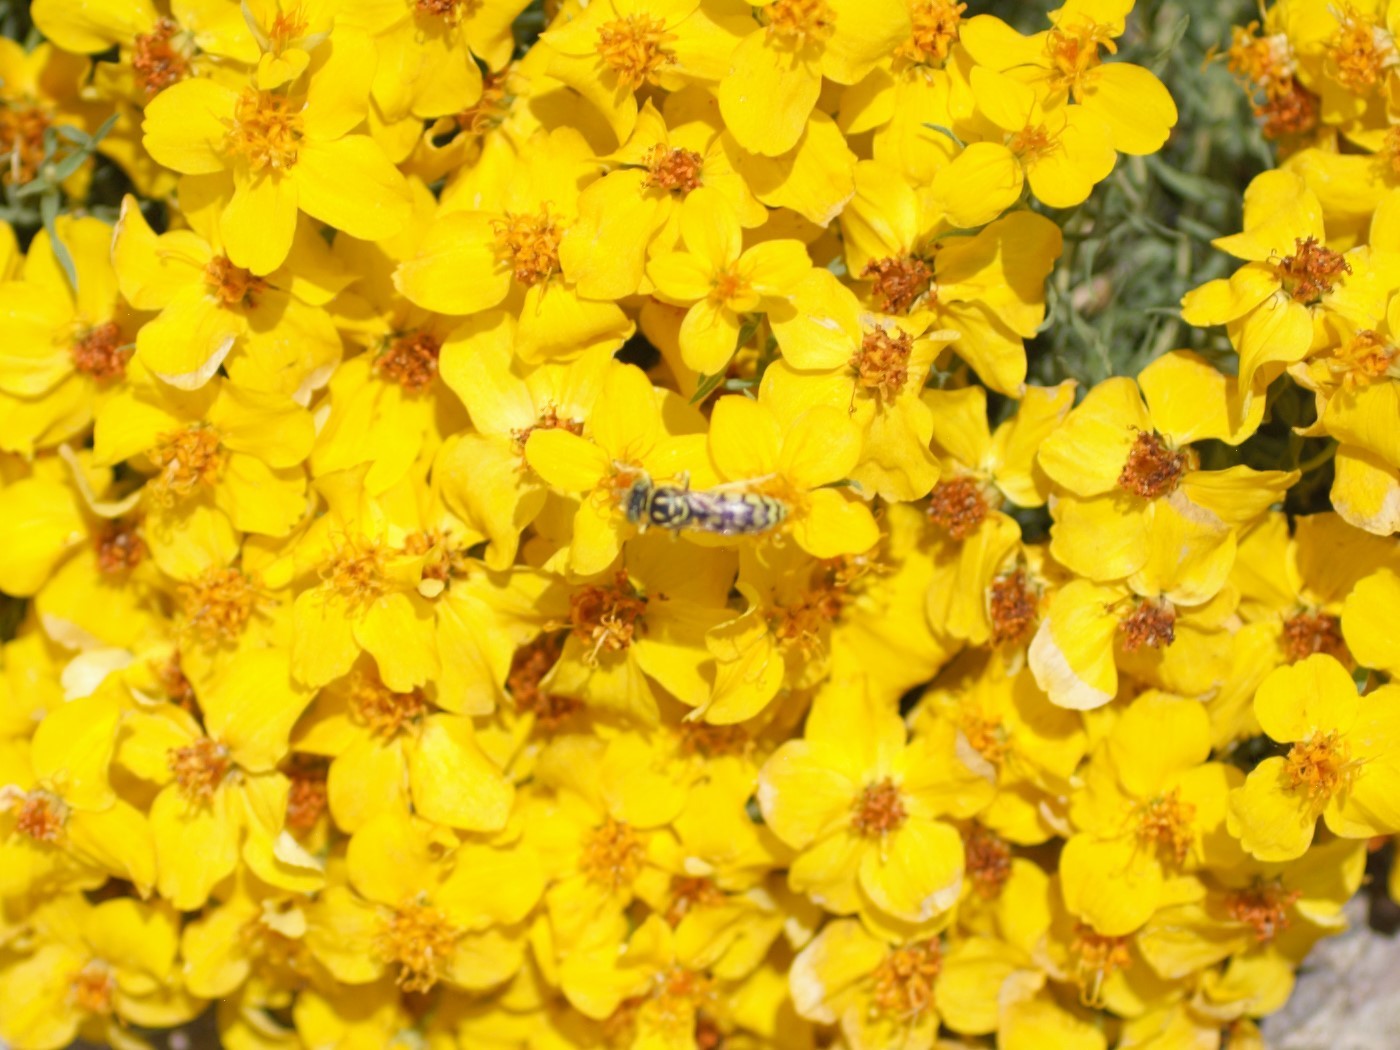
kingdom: Animalia
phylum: Arthropoda
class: Insecta
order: Hymenoptera
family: Crabronidae
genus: Steniolia
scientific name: Steniolia
